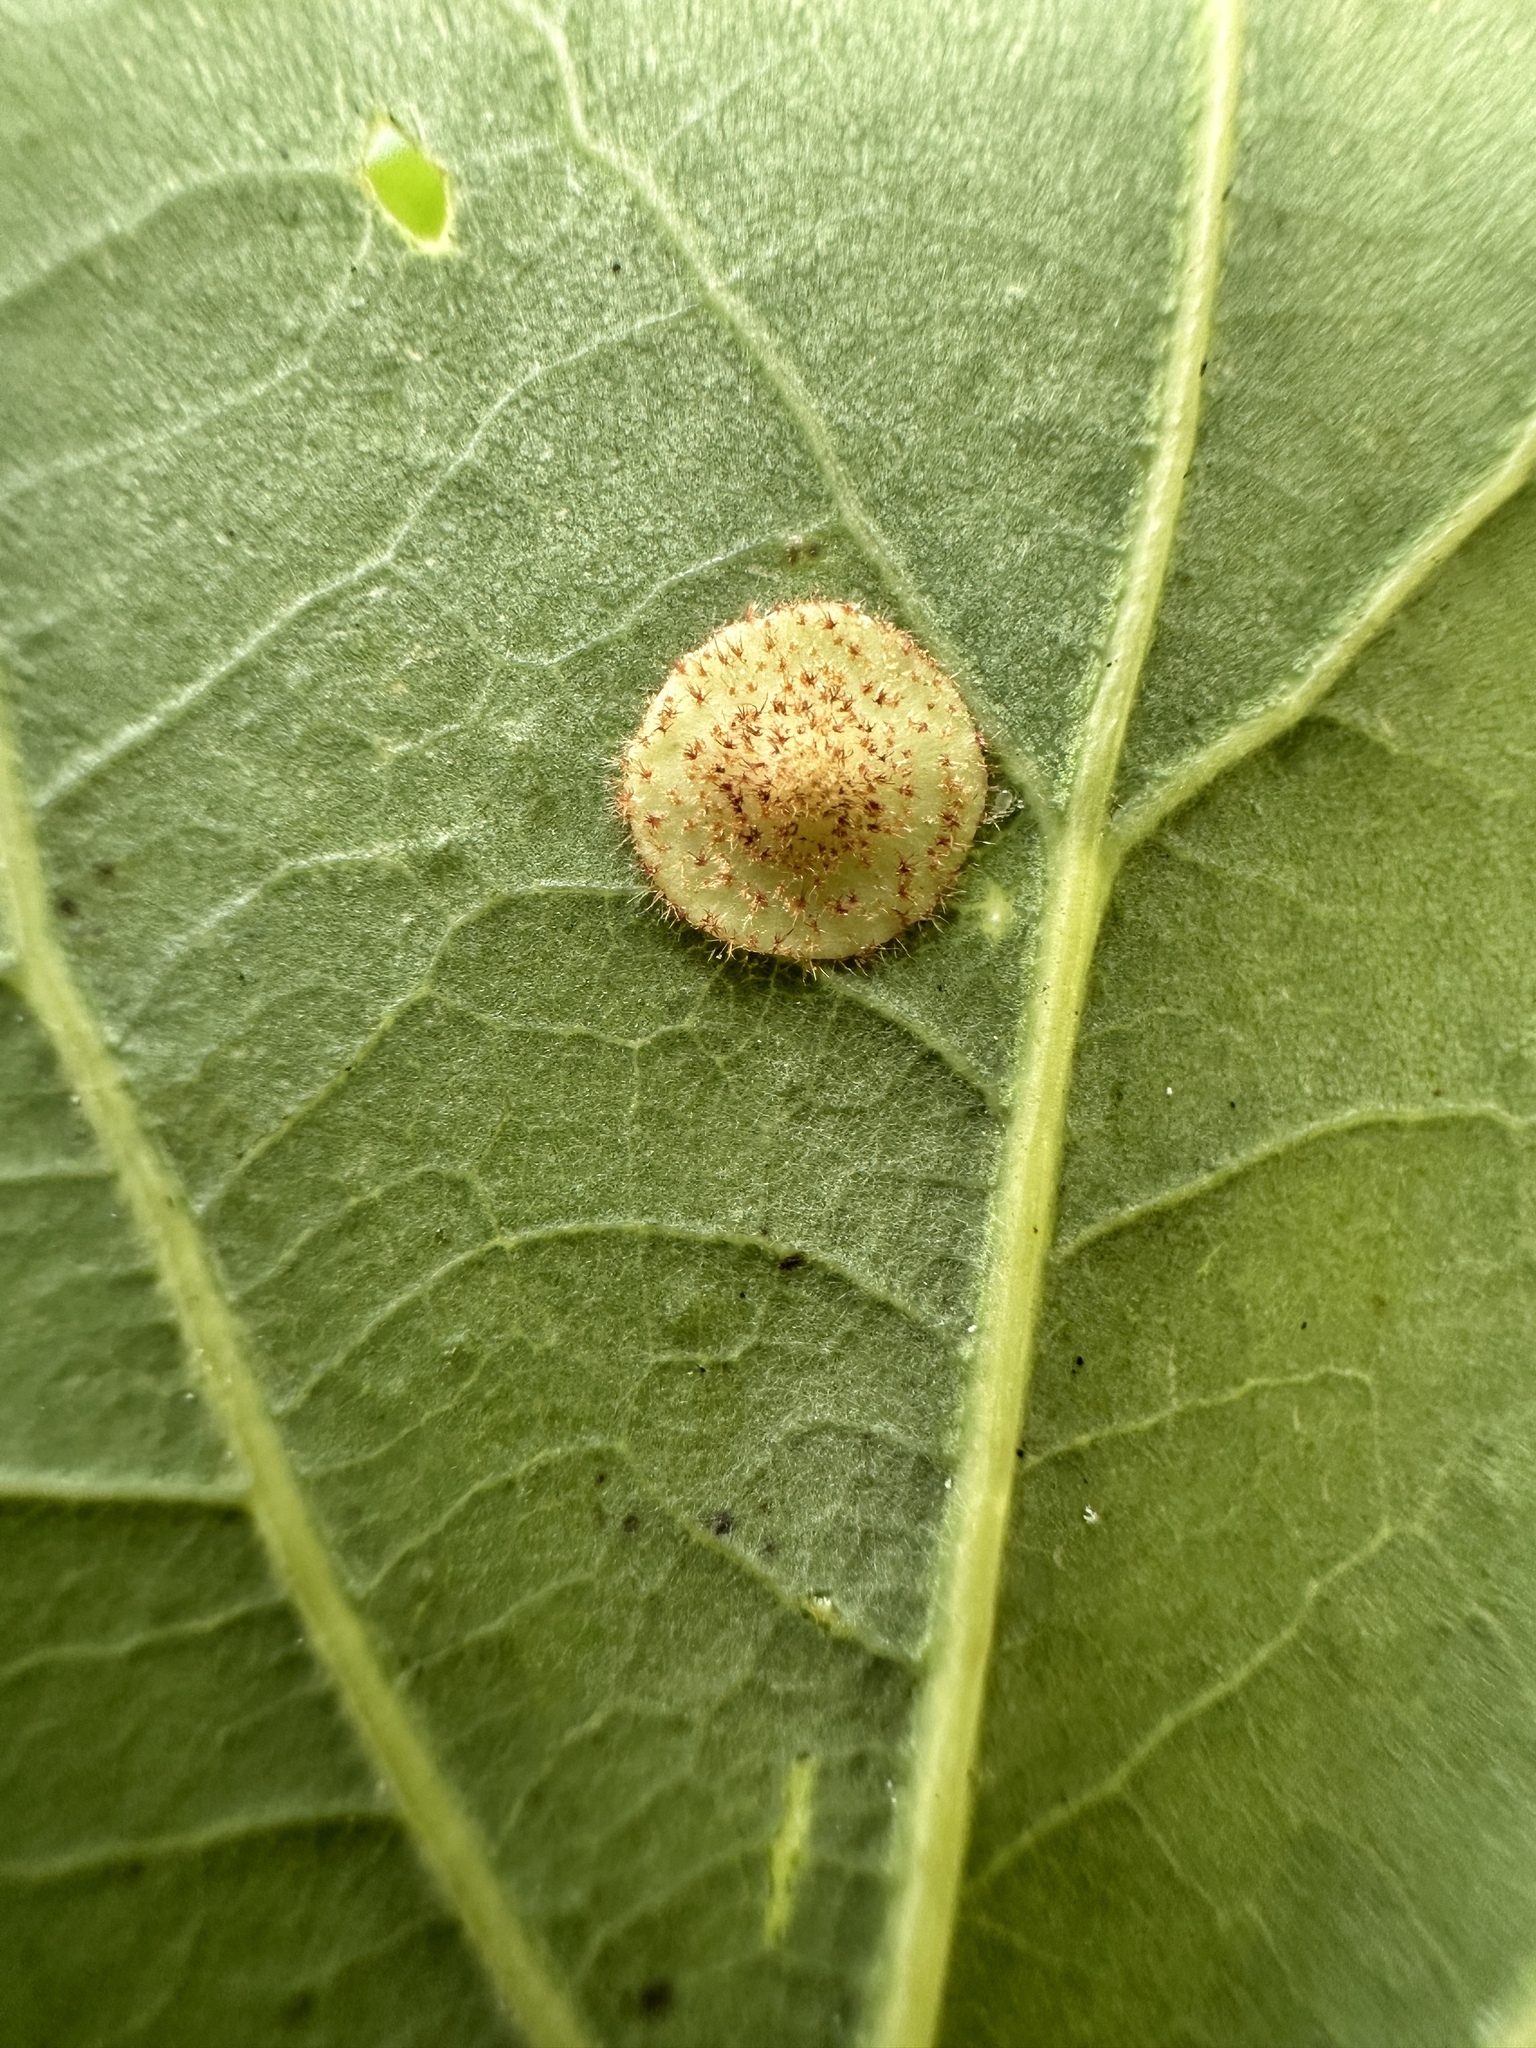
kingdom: Animalia
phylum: Arthropoda
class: Insecta
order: Hymenoptera
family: Cynipidae
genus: Neuroterus
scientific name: Neuroterus quercusbaccarum
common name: Common spangle gall
